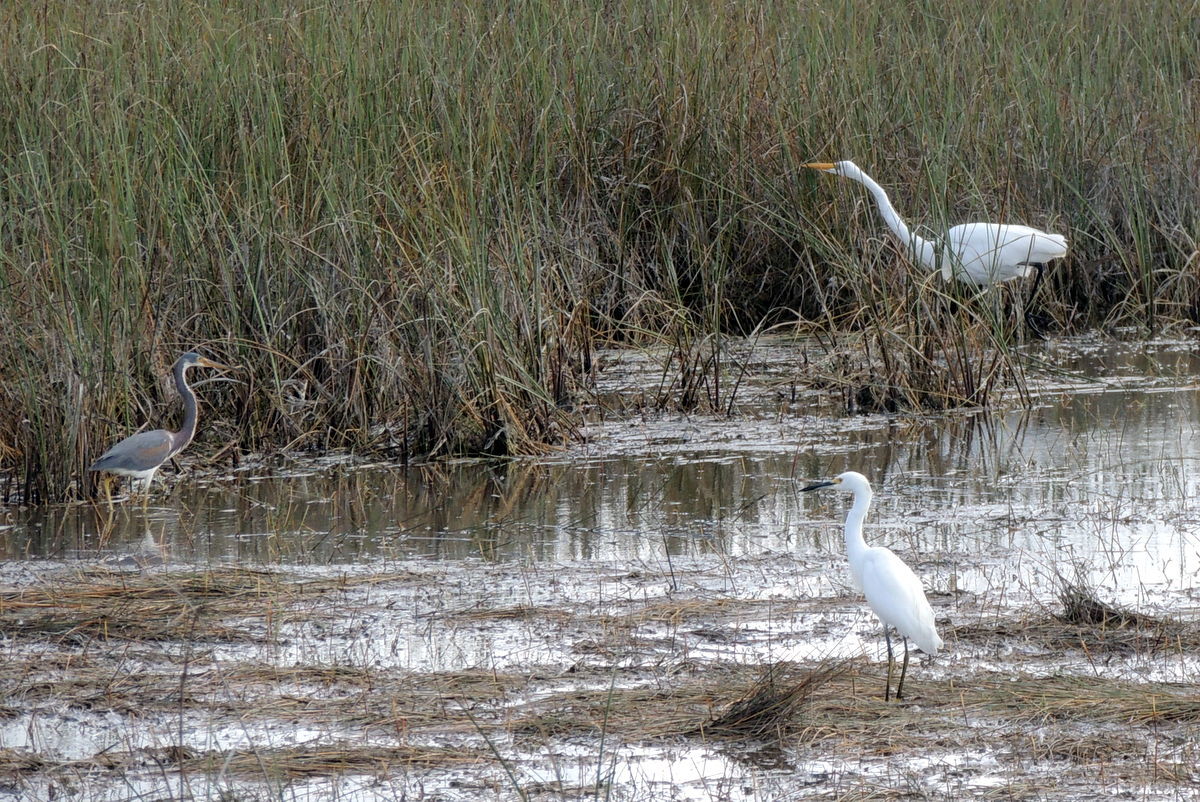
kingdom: Animalia
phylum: Chordata
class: Aves
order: Pelecaniformes
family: Ardeidae
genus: Ardea
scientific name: Ardea alba
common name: Great egret
